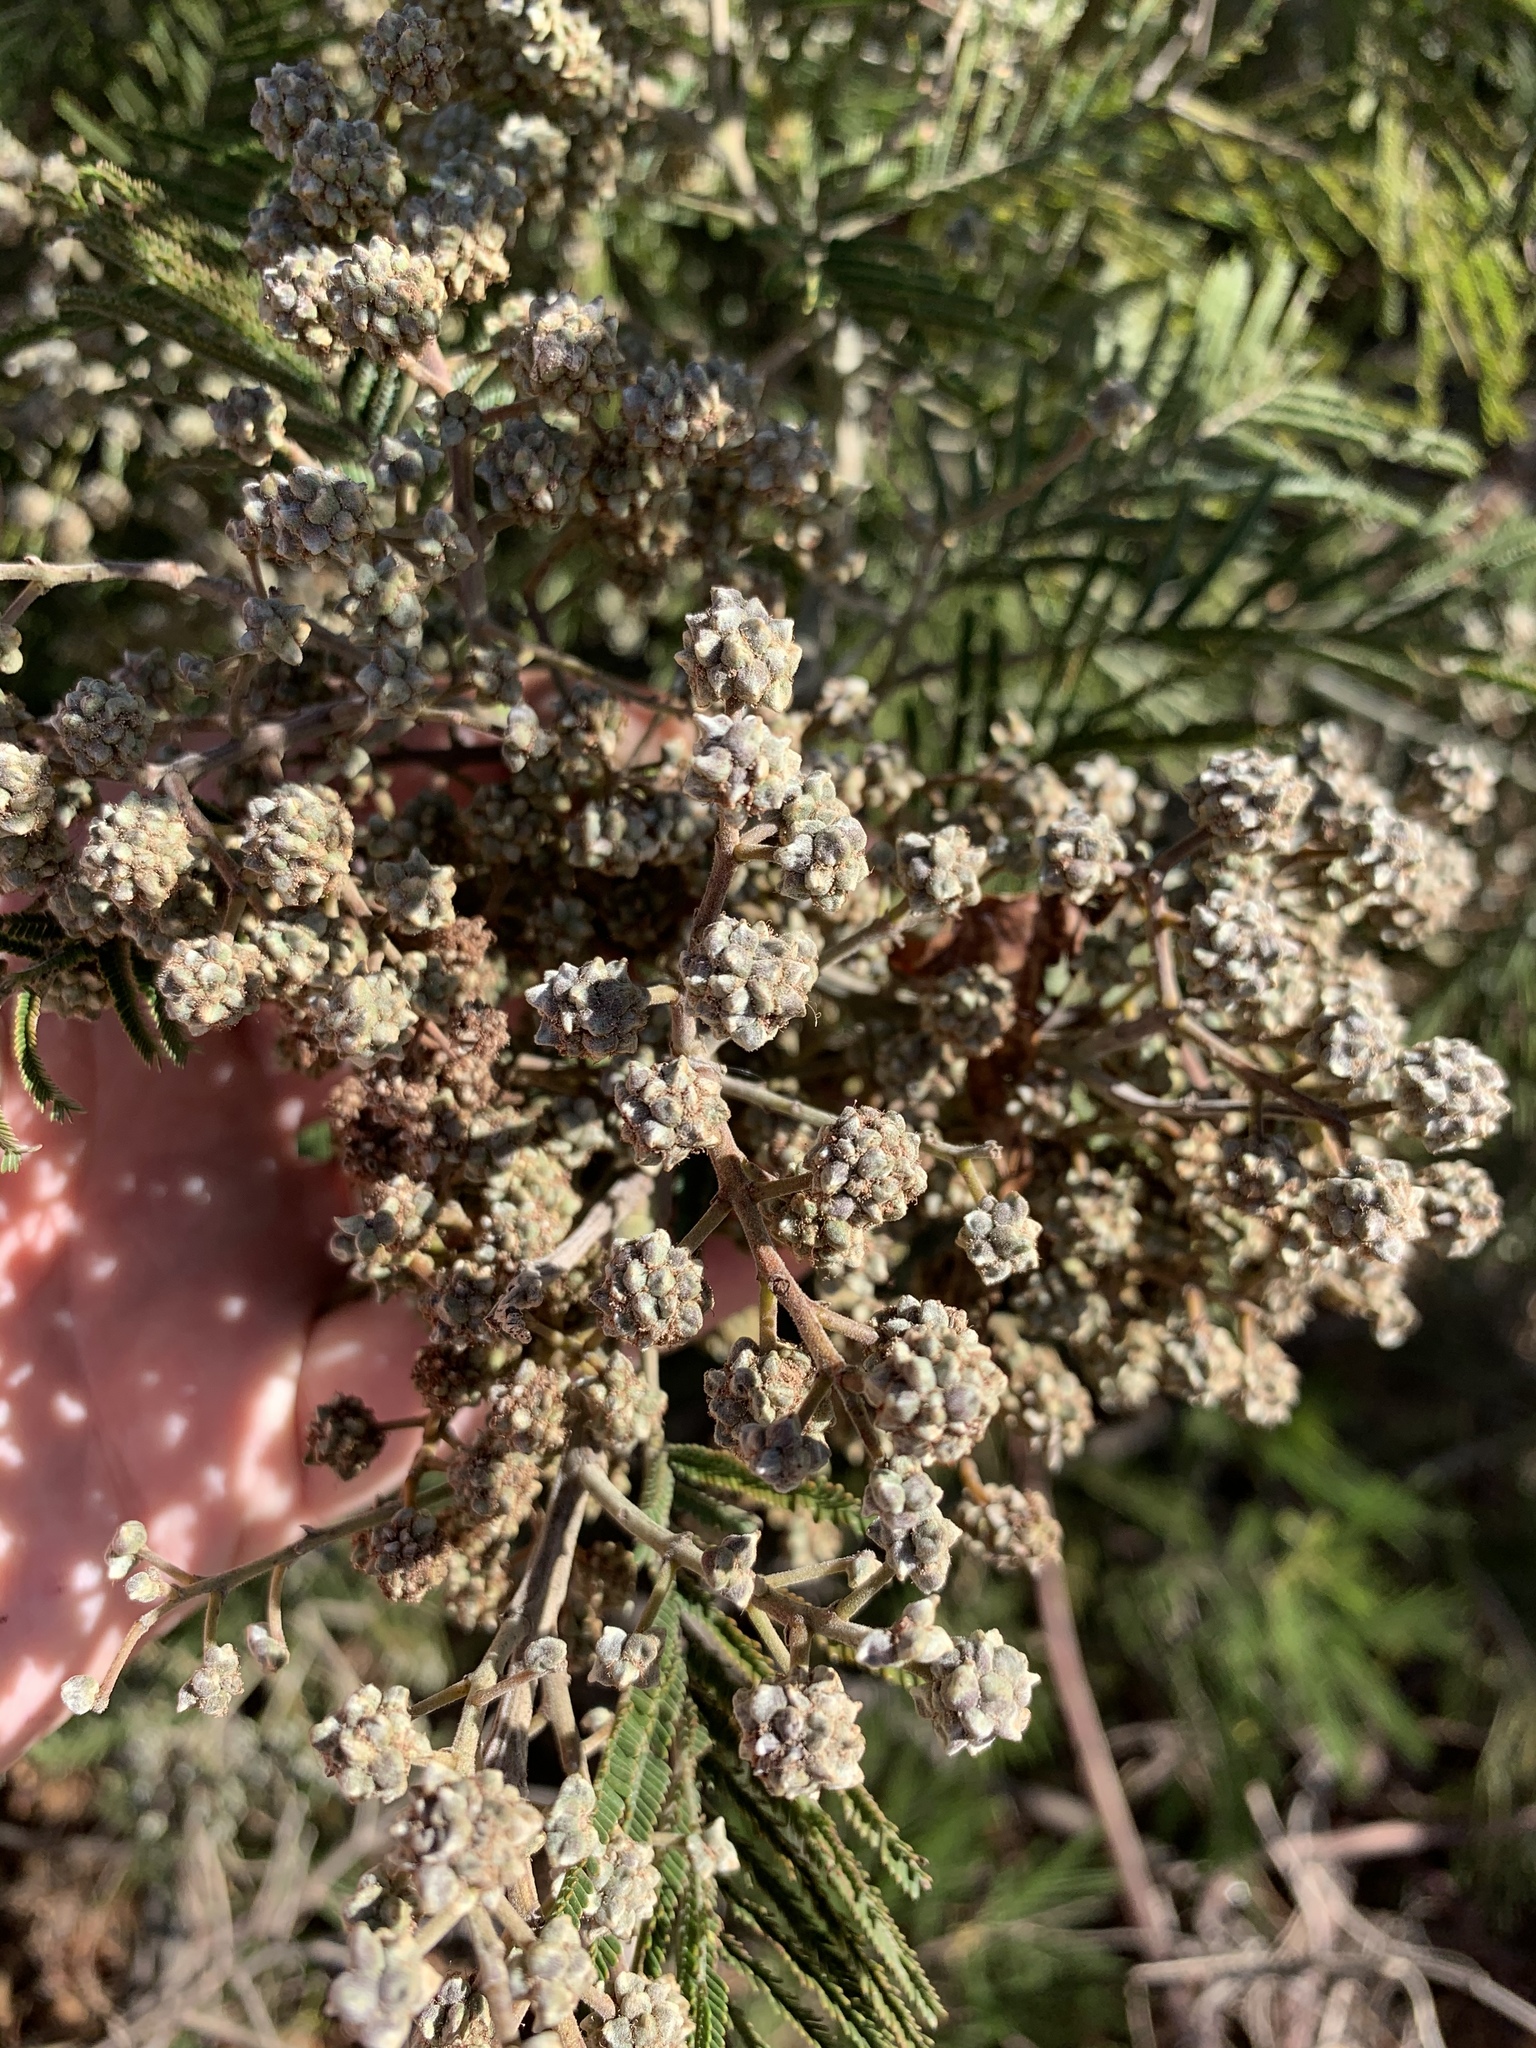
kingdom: Plantae
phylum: Tracheophyta
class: Magnoliopsida
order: Fabales
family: Fabaceae
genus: Acacia
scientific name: Acacia mearnsii
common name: Black wattle
